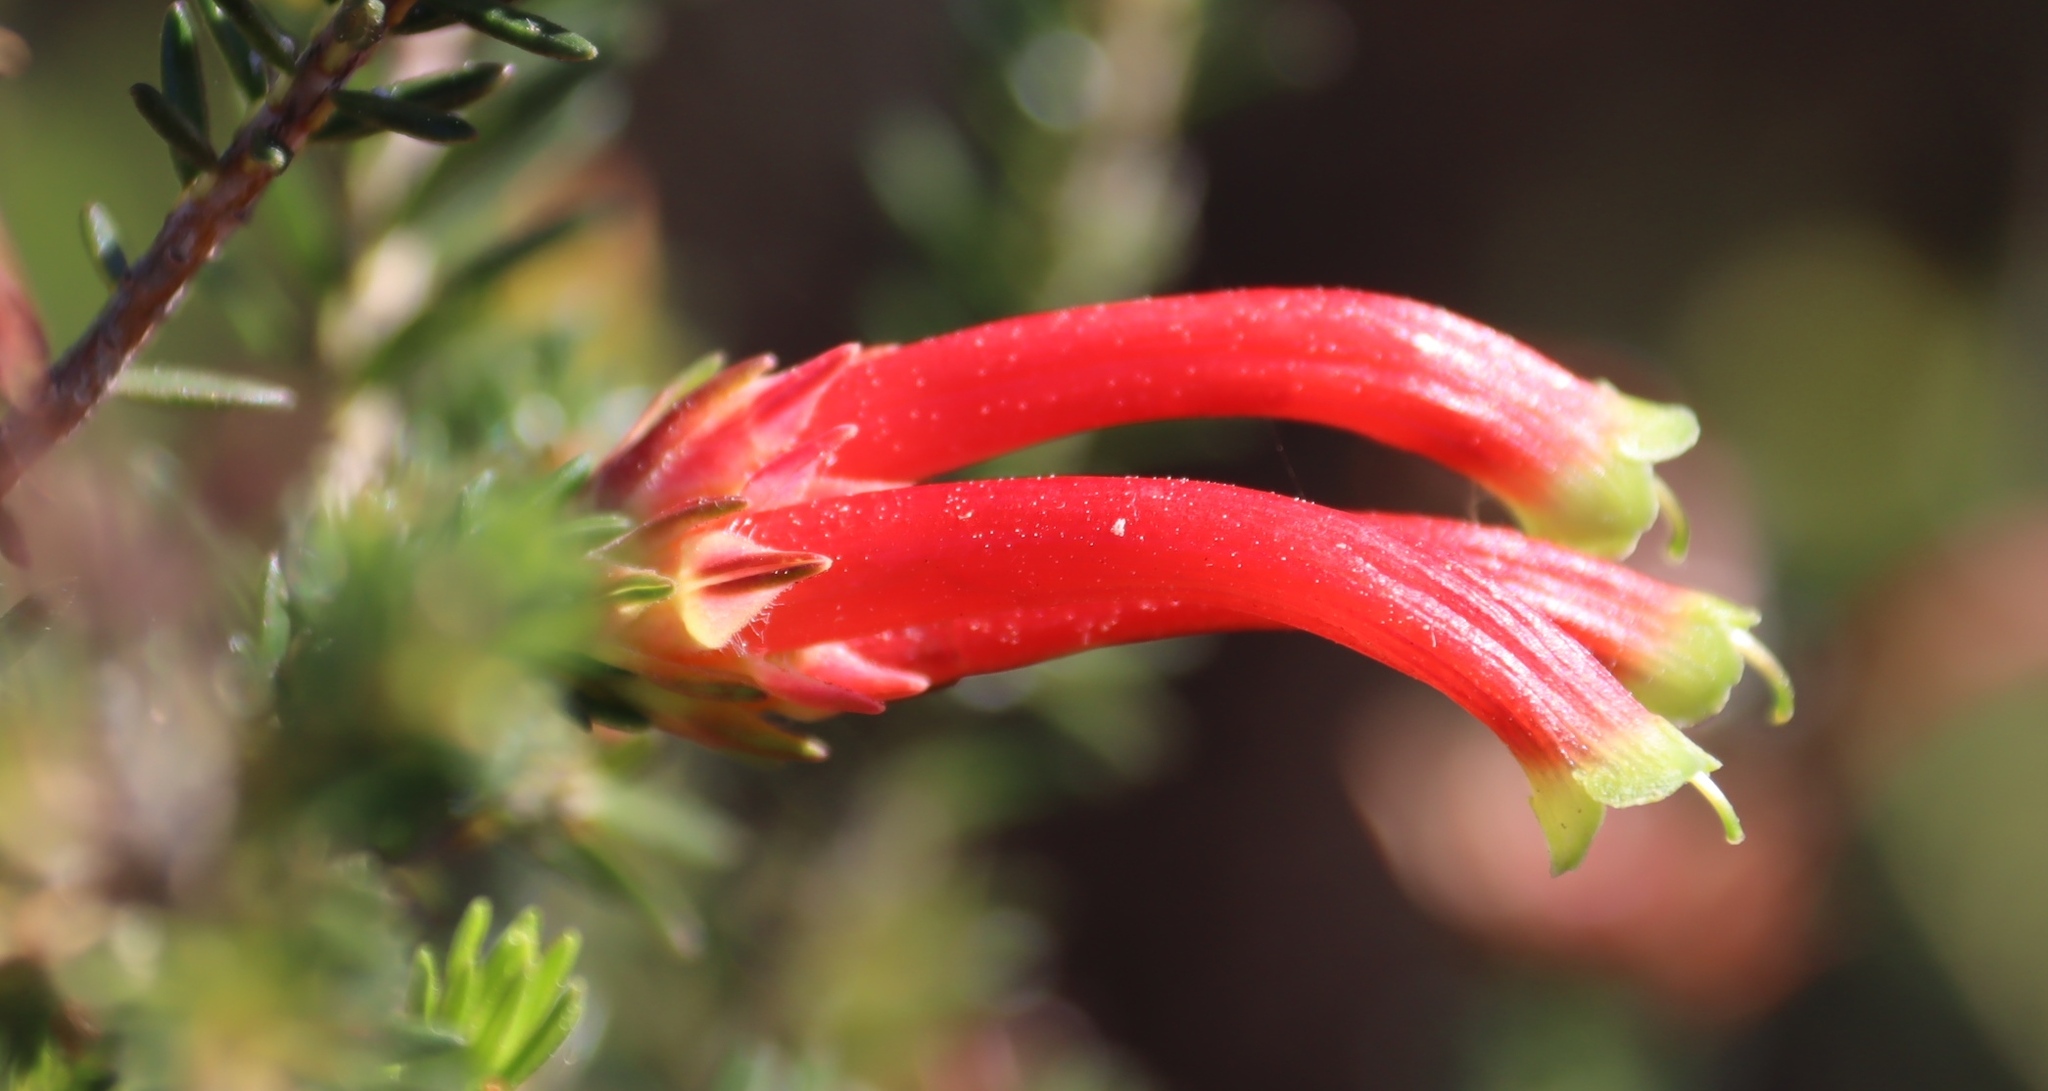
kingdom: Plantae
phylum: Tracheophyta
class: Magnoliopsida
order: Ericales
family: Ericaceae
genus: Erica
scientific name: Erica discolor
